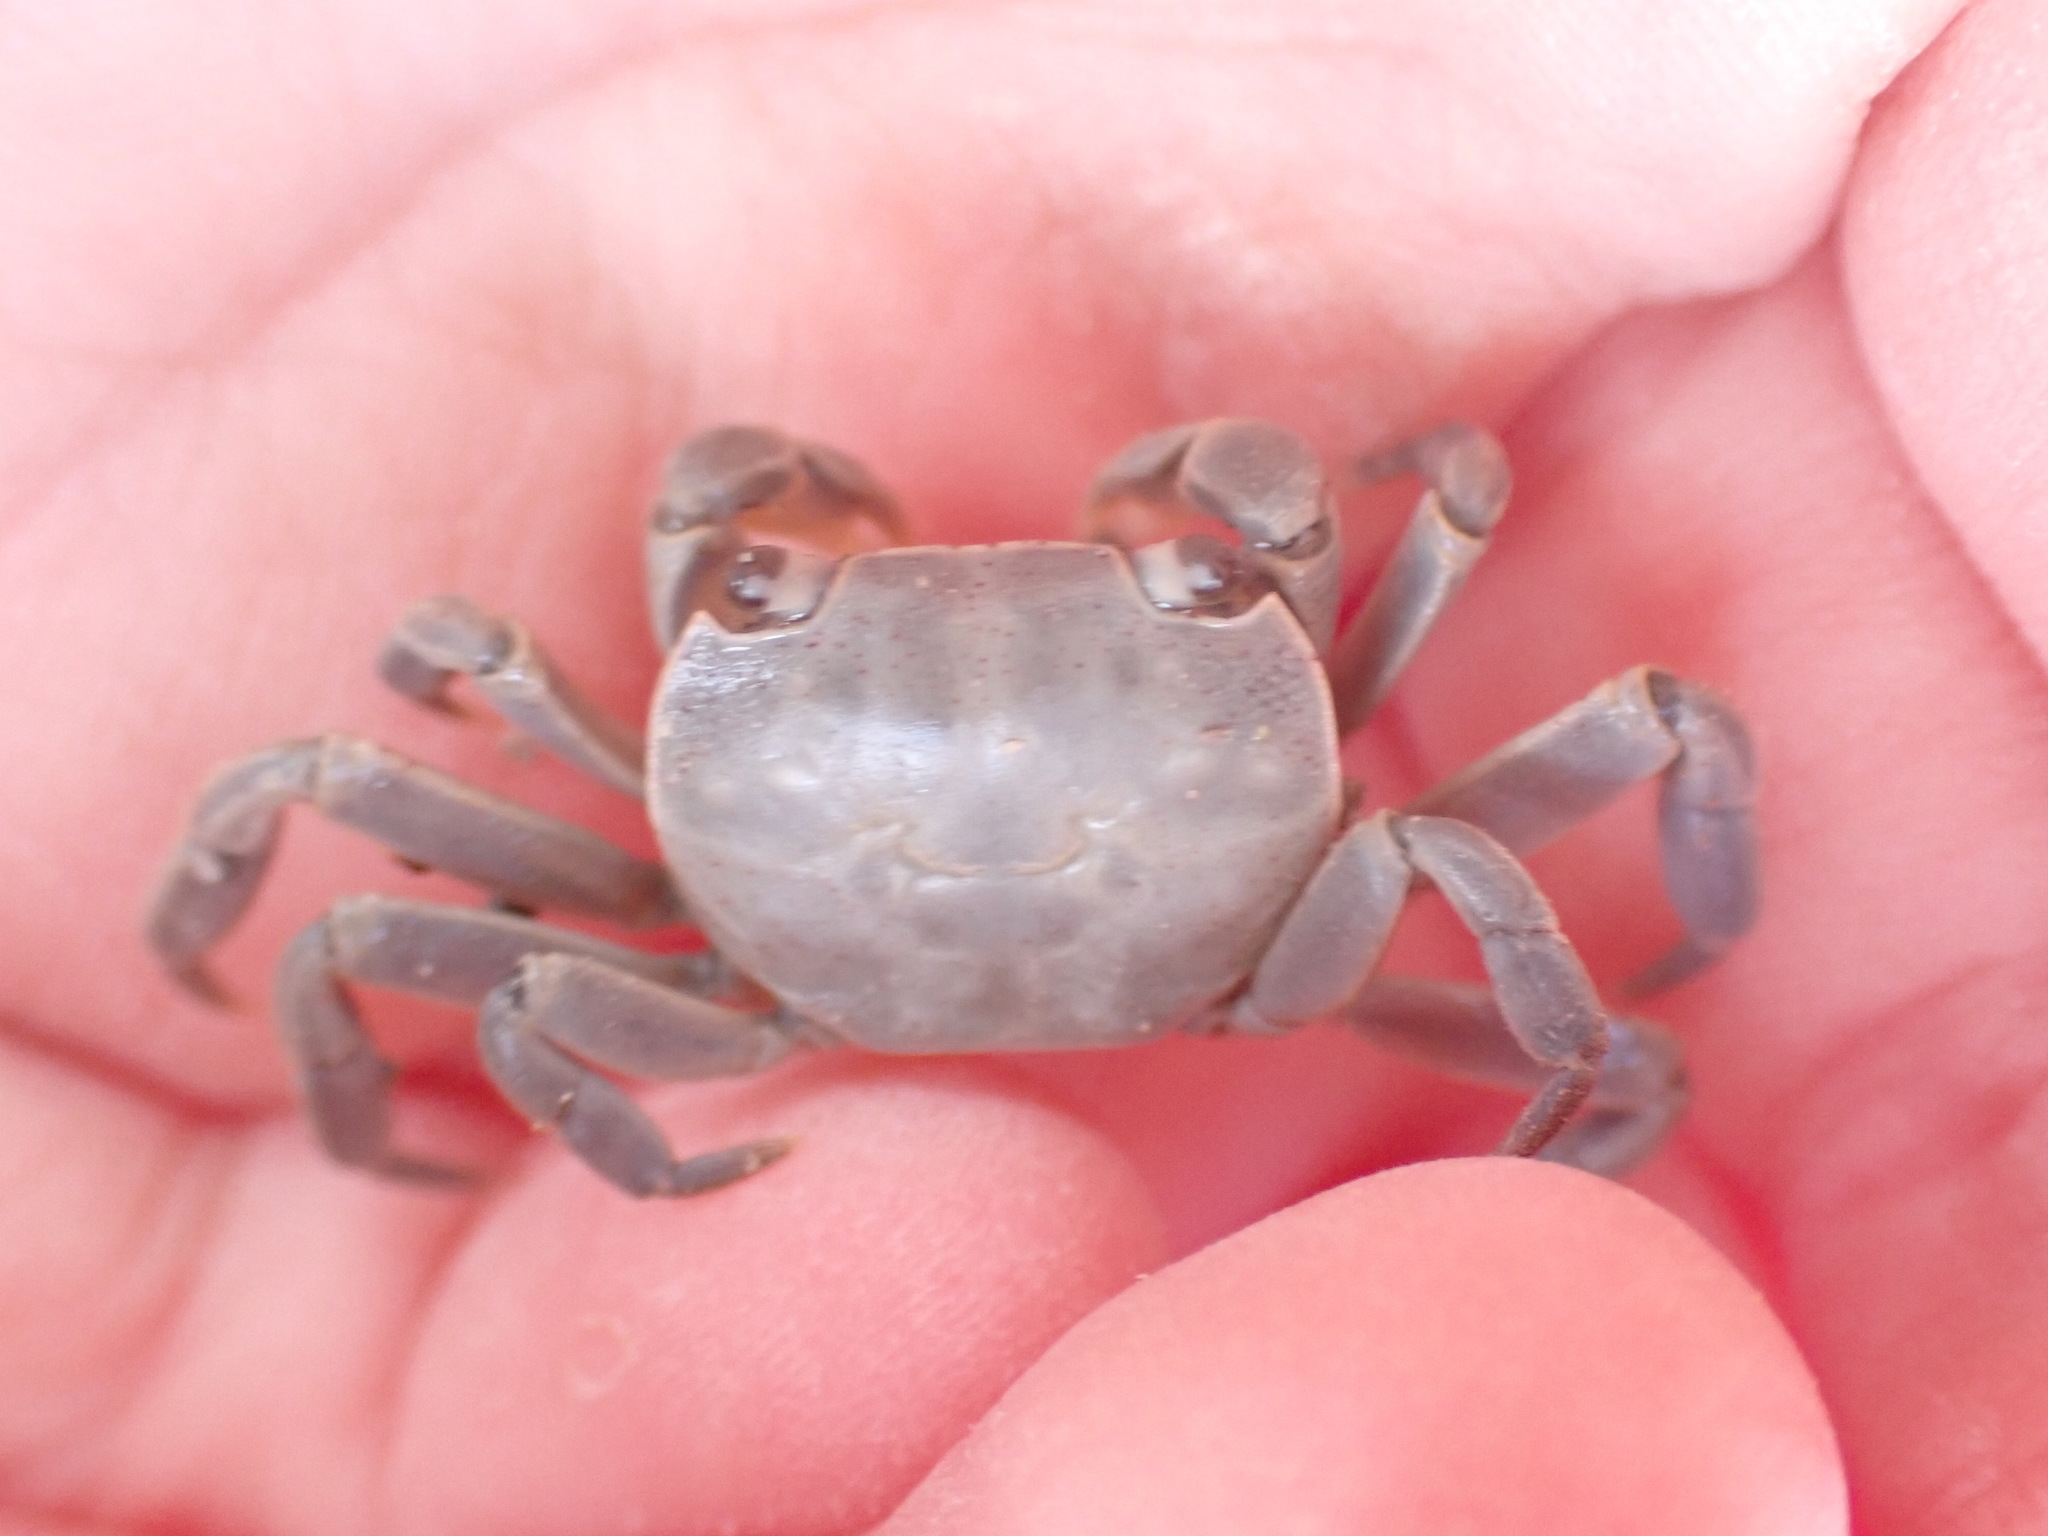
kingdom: Animalia
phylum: Arthropoda
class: Malacostraca
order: Decapoda
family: Varunidae
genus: Cyclograpsus
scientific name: Cyclograpsus lavauxi
